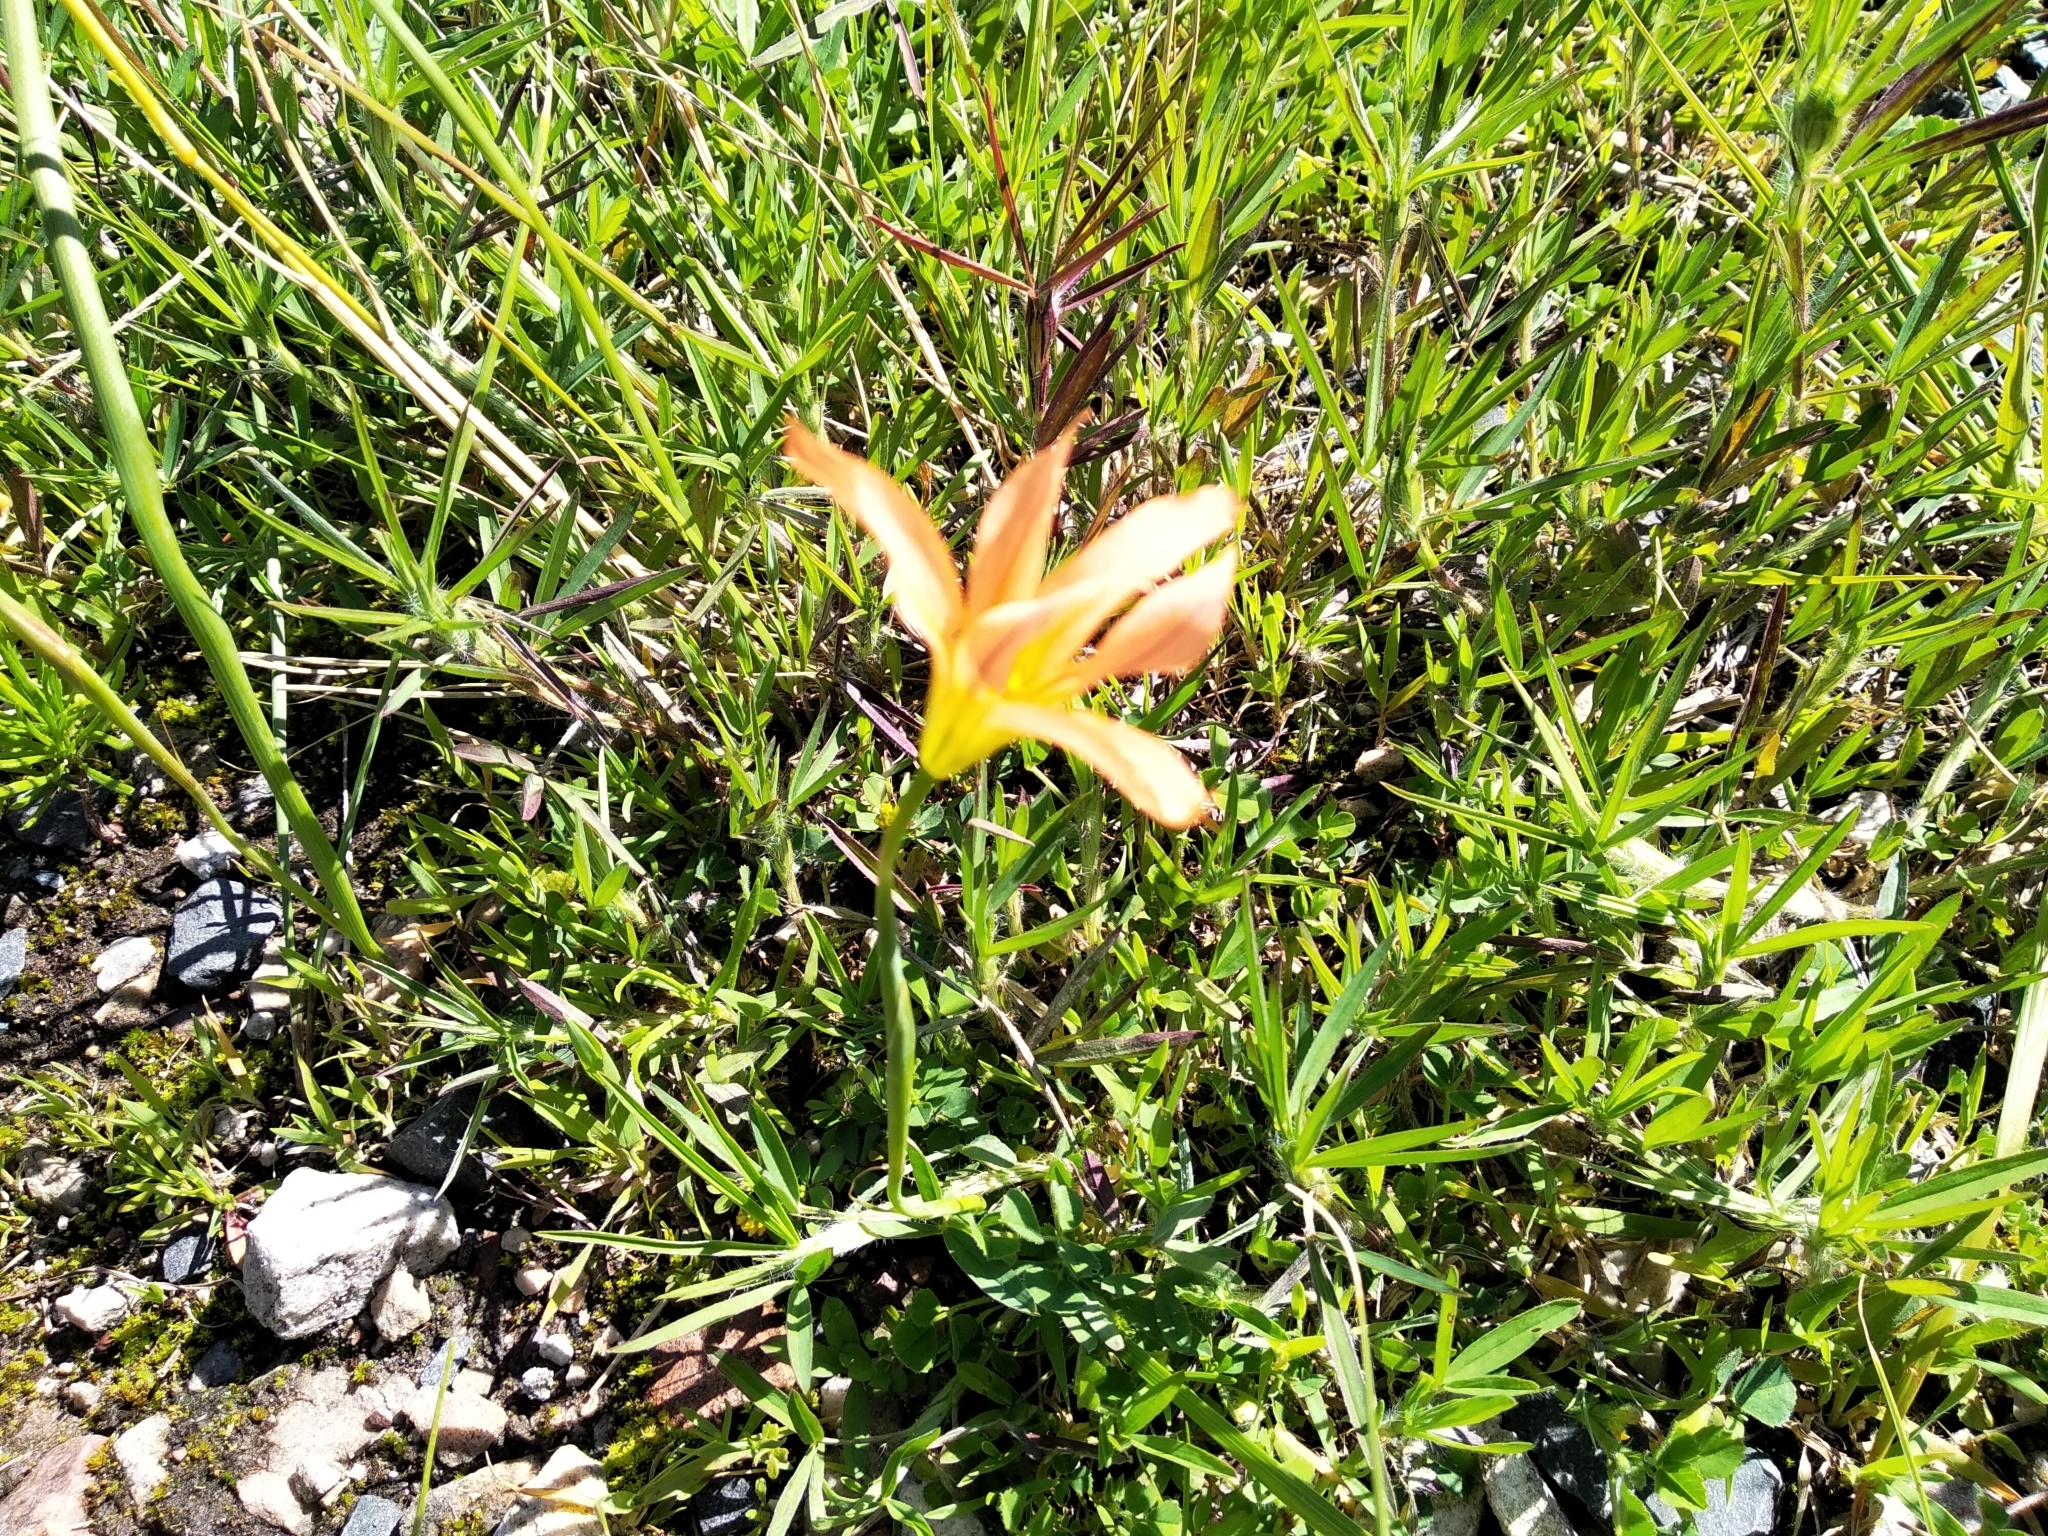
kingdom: Plantae
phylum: Tracheophyta
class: Liliopsida
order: Asparagales
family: Iridaceae
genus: Moraea
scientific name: Moraea flaccida
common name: One-leaf cape-tulip
